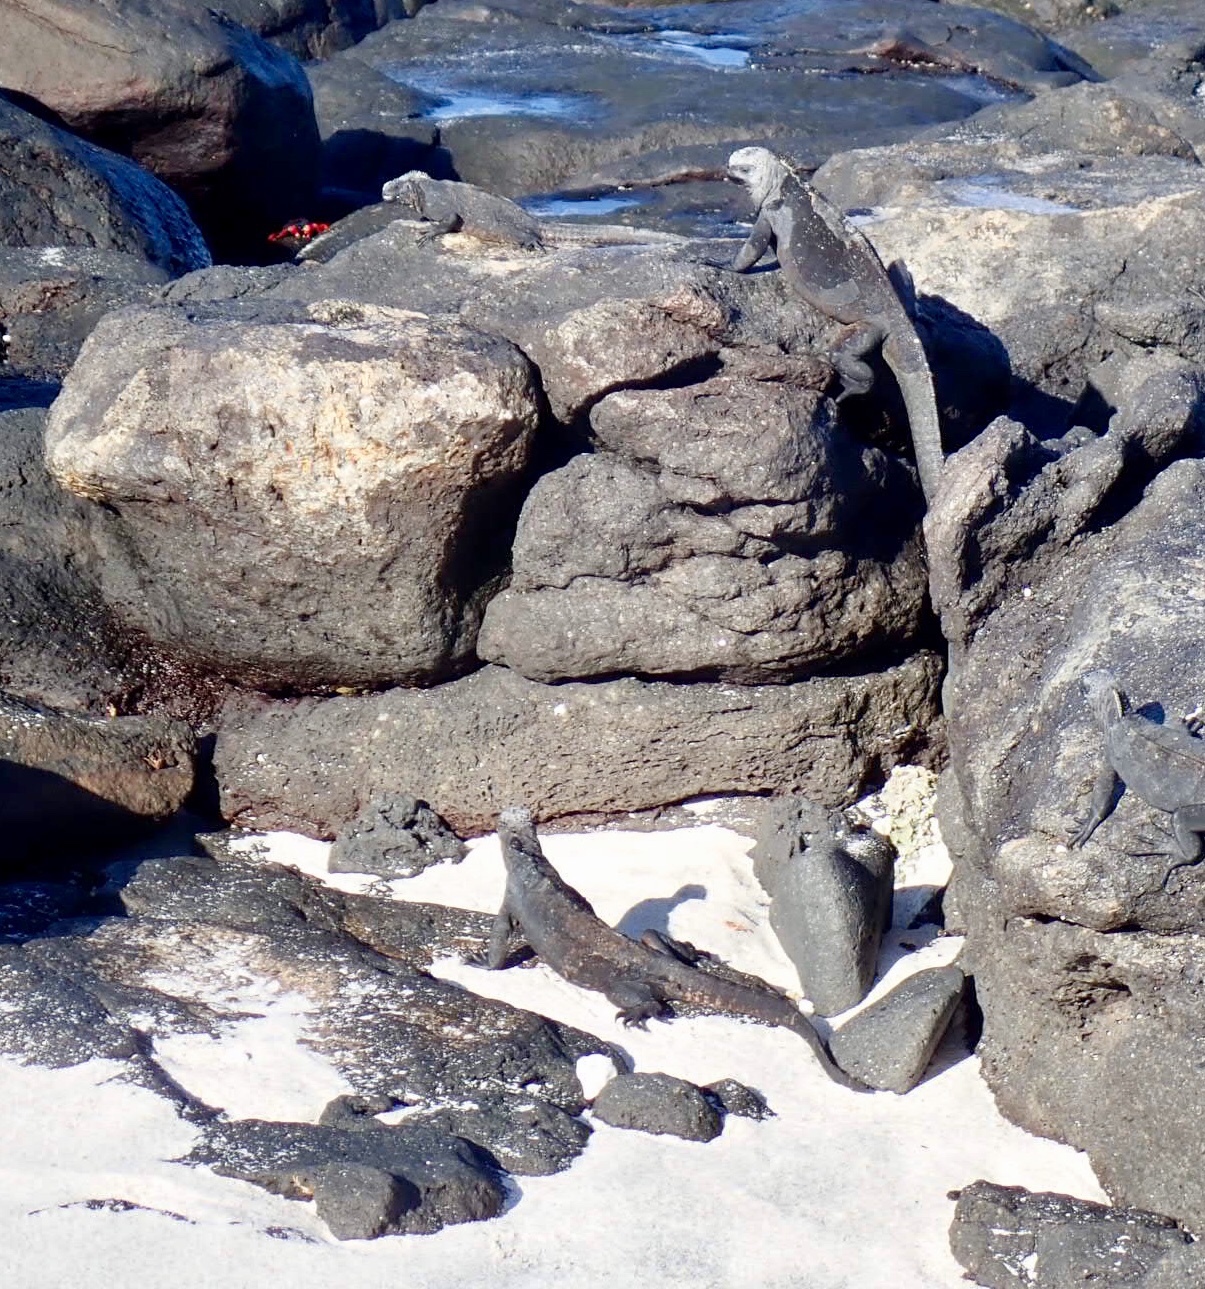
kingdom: Animalia
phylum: Chordata
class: Squamata
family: Iguanidae
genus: Amblyrhynchus
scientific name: Amblyrhynchus cristatus
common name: Marine iguana
